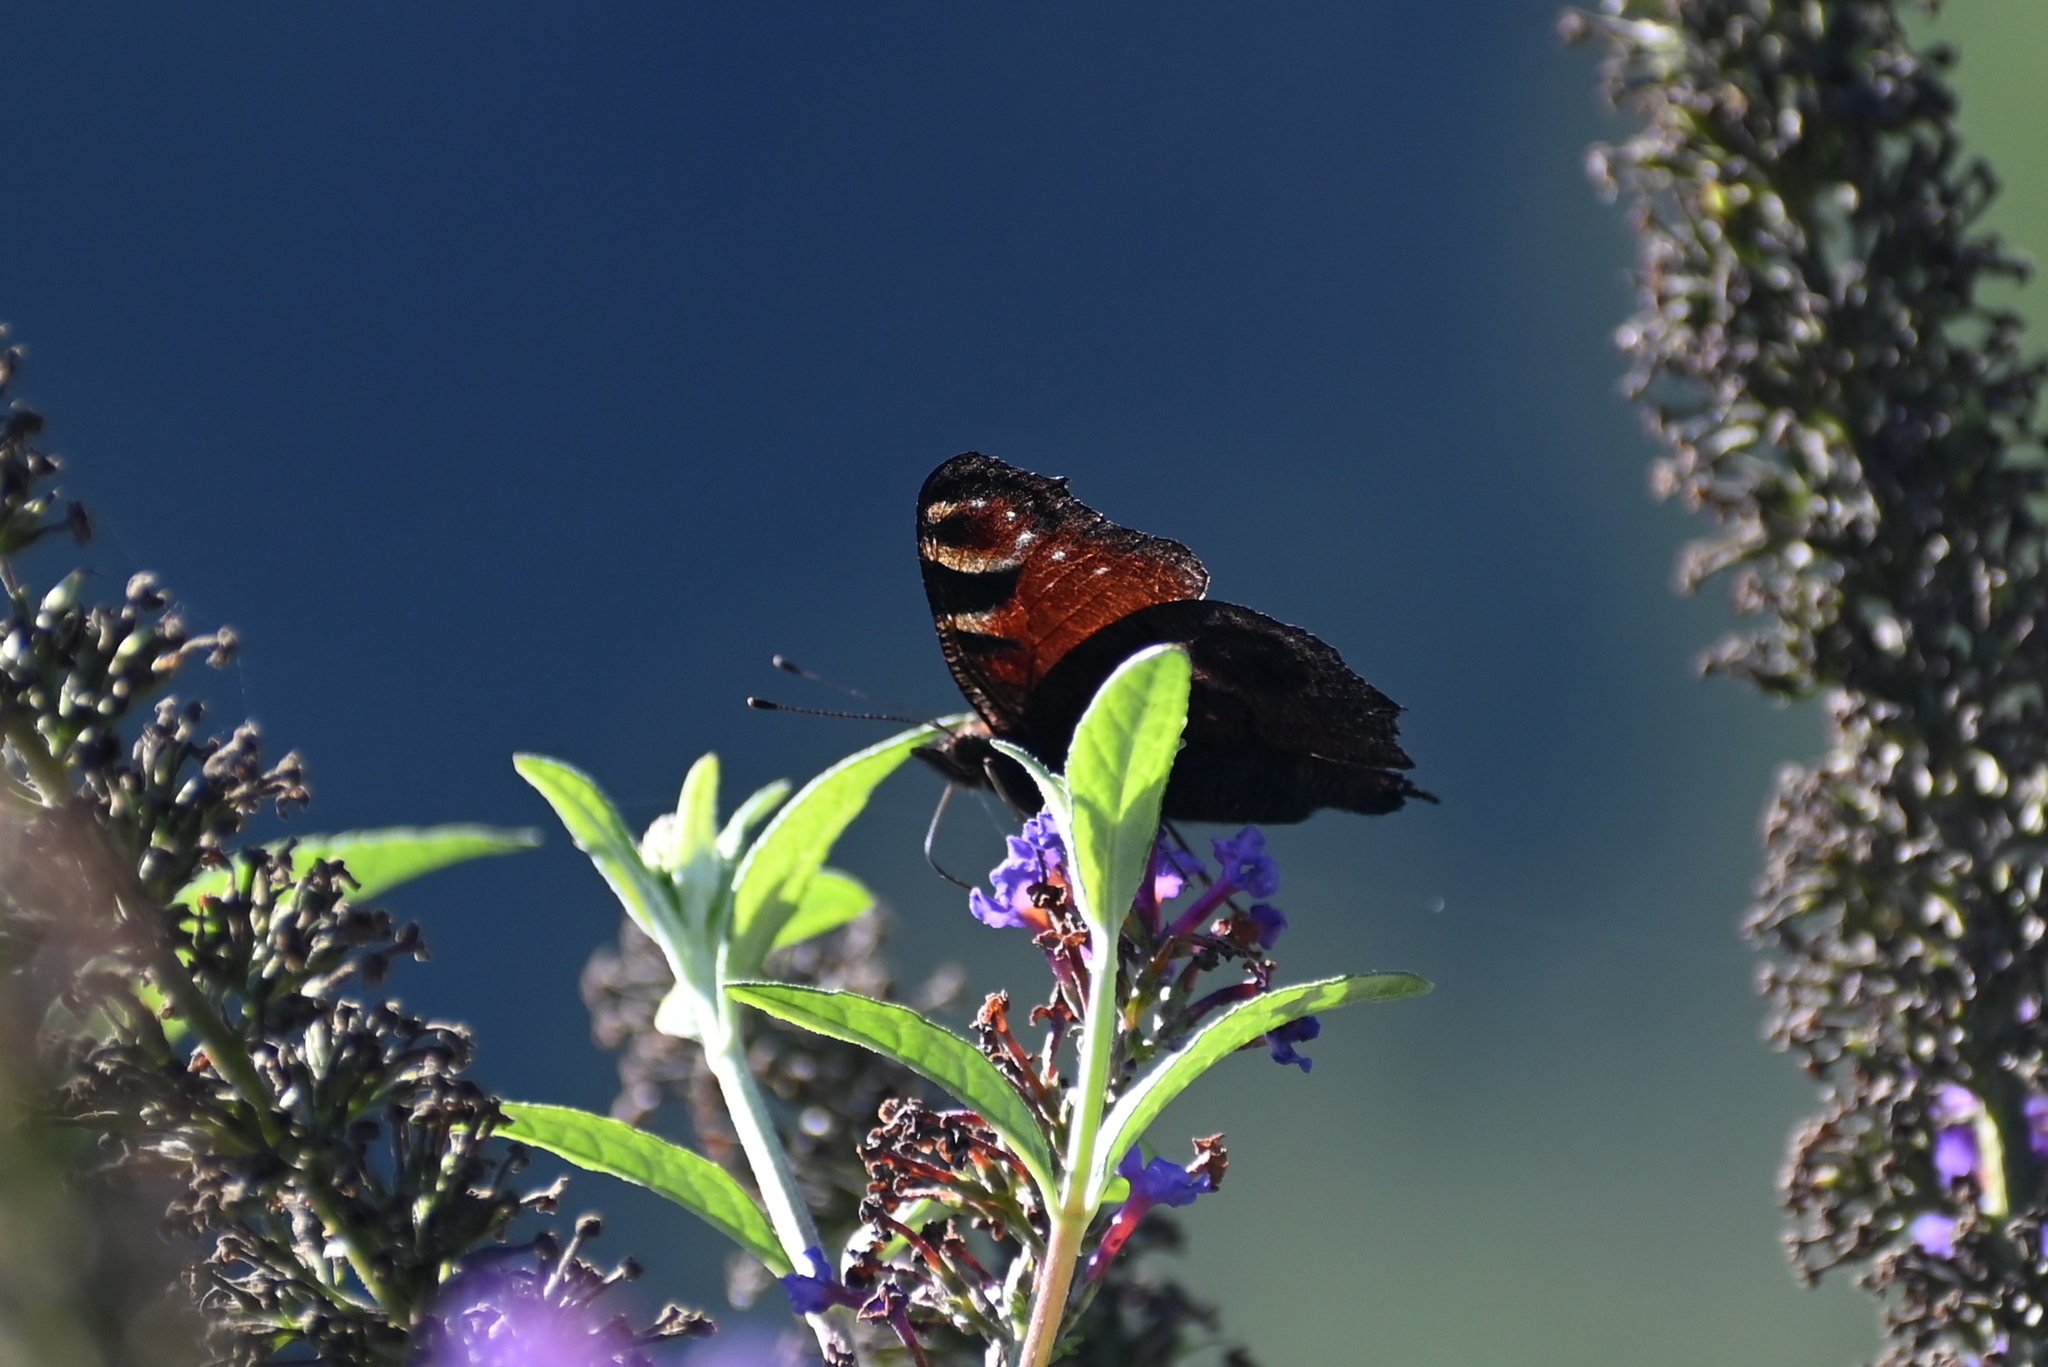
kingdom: Animalia
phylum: Arthropoda
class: Insecta
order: Lepidoptera
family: Nymphalidae
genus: Aglais
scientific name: Aglais io
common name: Peacock
